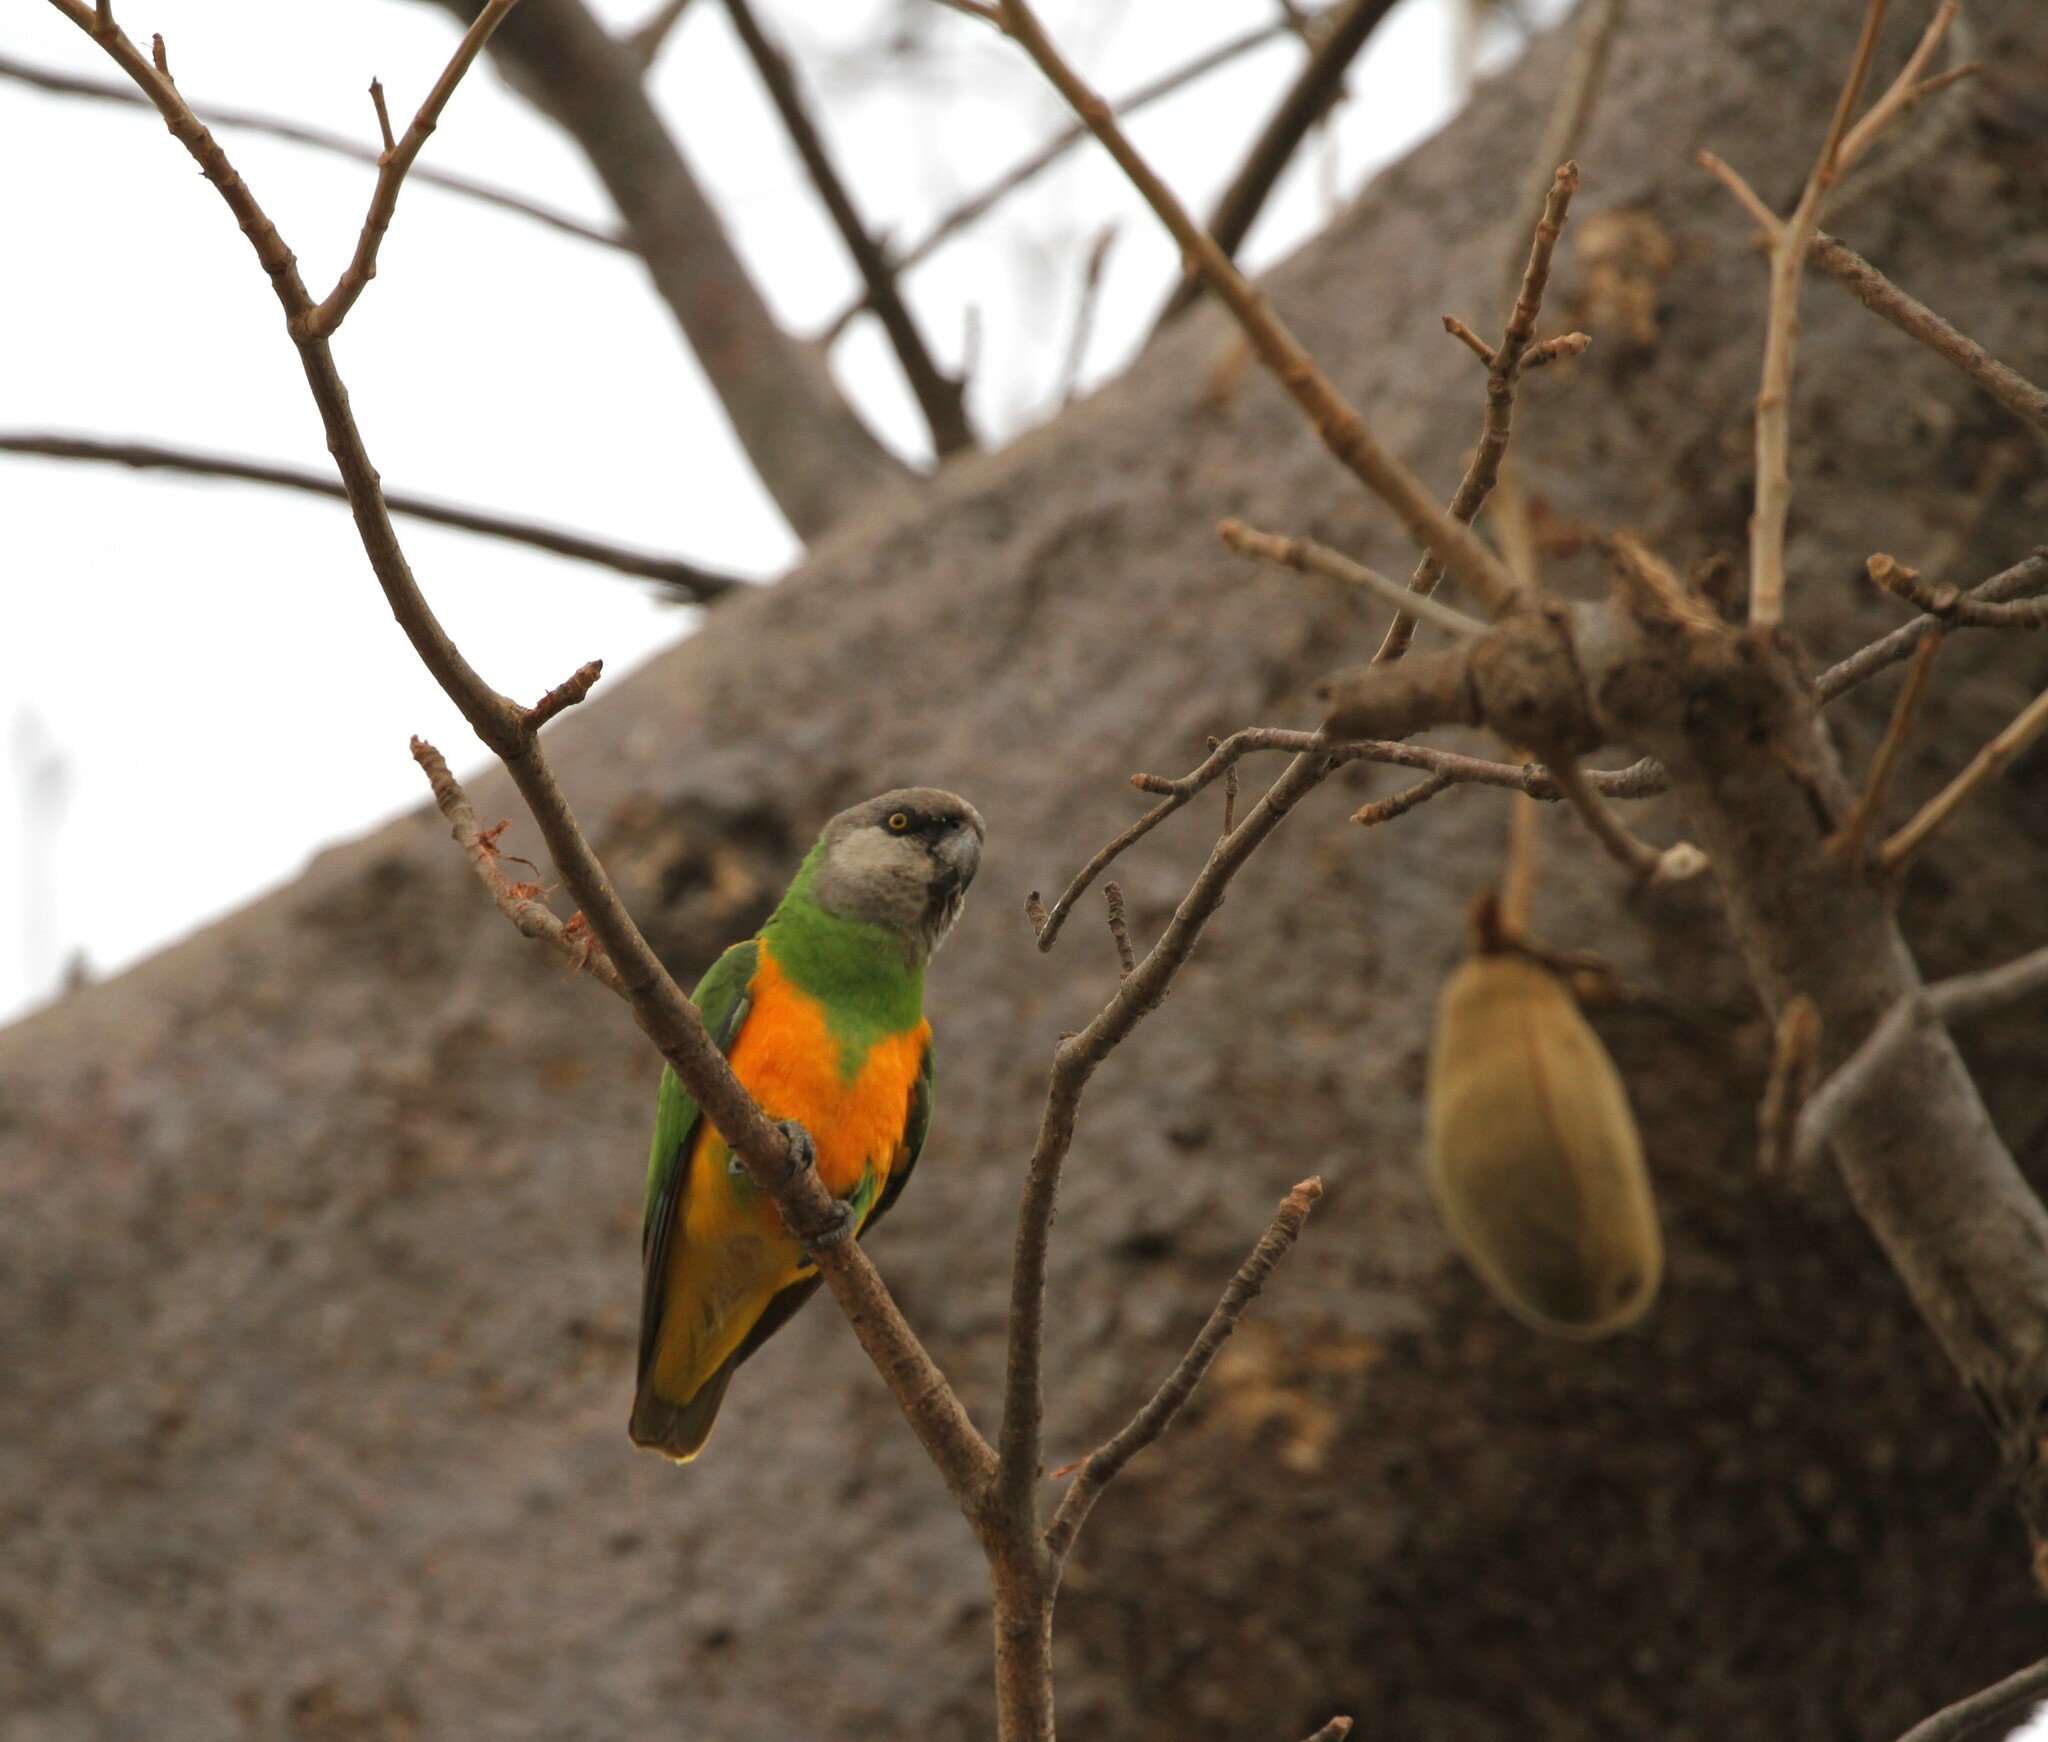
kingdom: Animalia
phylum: Chordata
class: Aves
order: Psittaciformes
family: Psittacidae
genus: Poicephalus
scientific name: Poicephalus senegalus
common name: Senegal parrot
